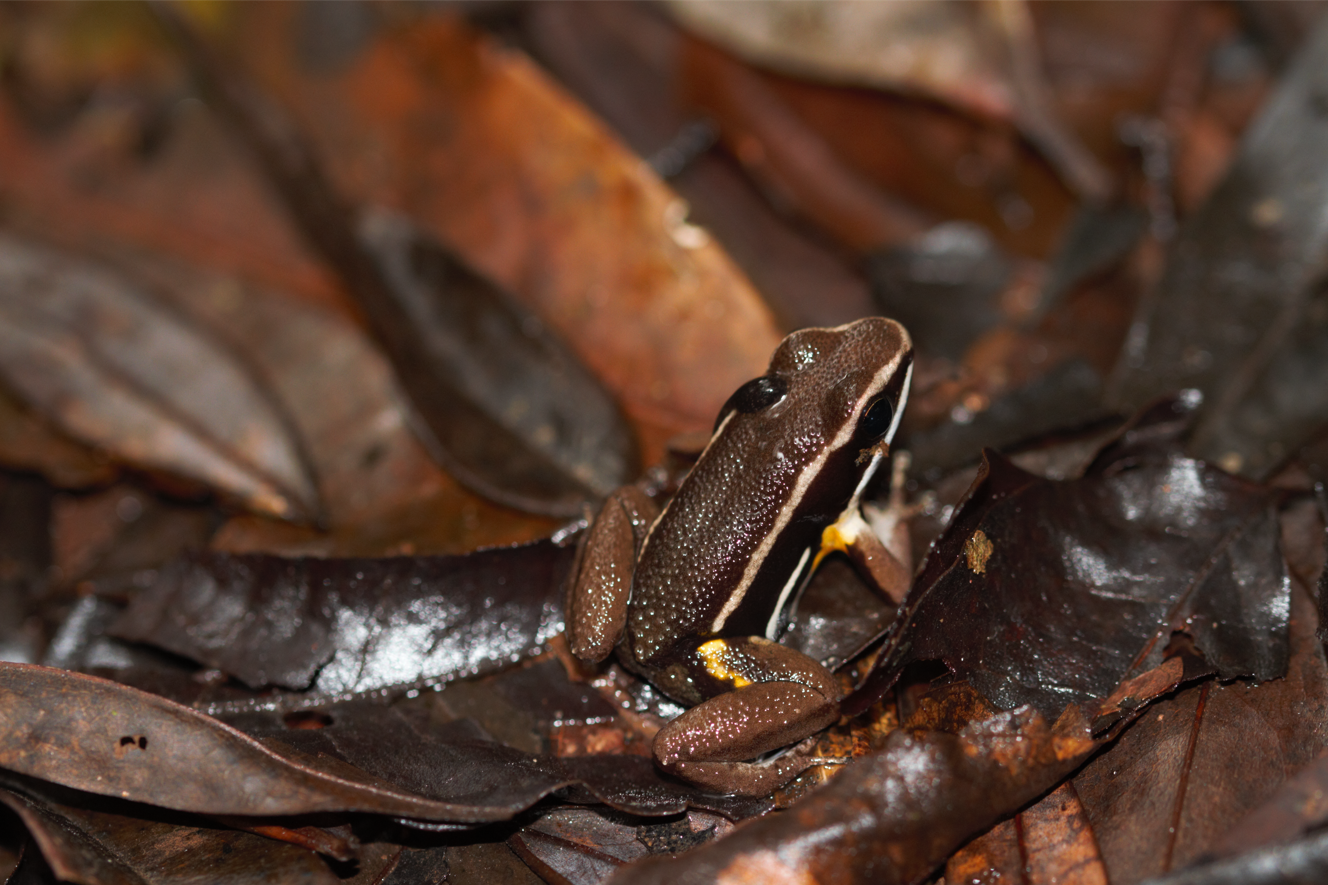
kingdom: Animalia
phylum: Chordata
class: Amphibia
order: Anura
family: Aromobatidae
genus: Allobates
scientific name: Allobates femoralis
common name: Brilliant-thighed poison frog
